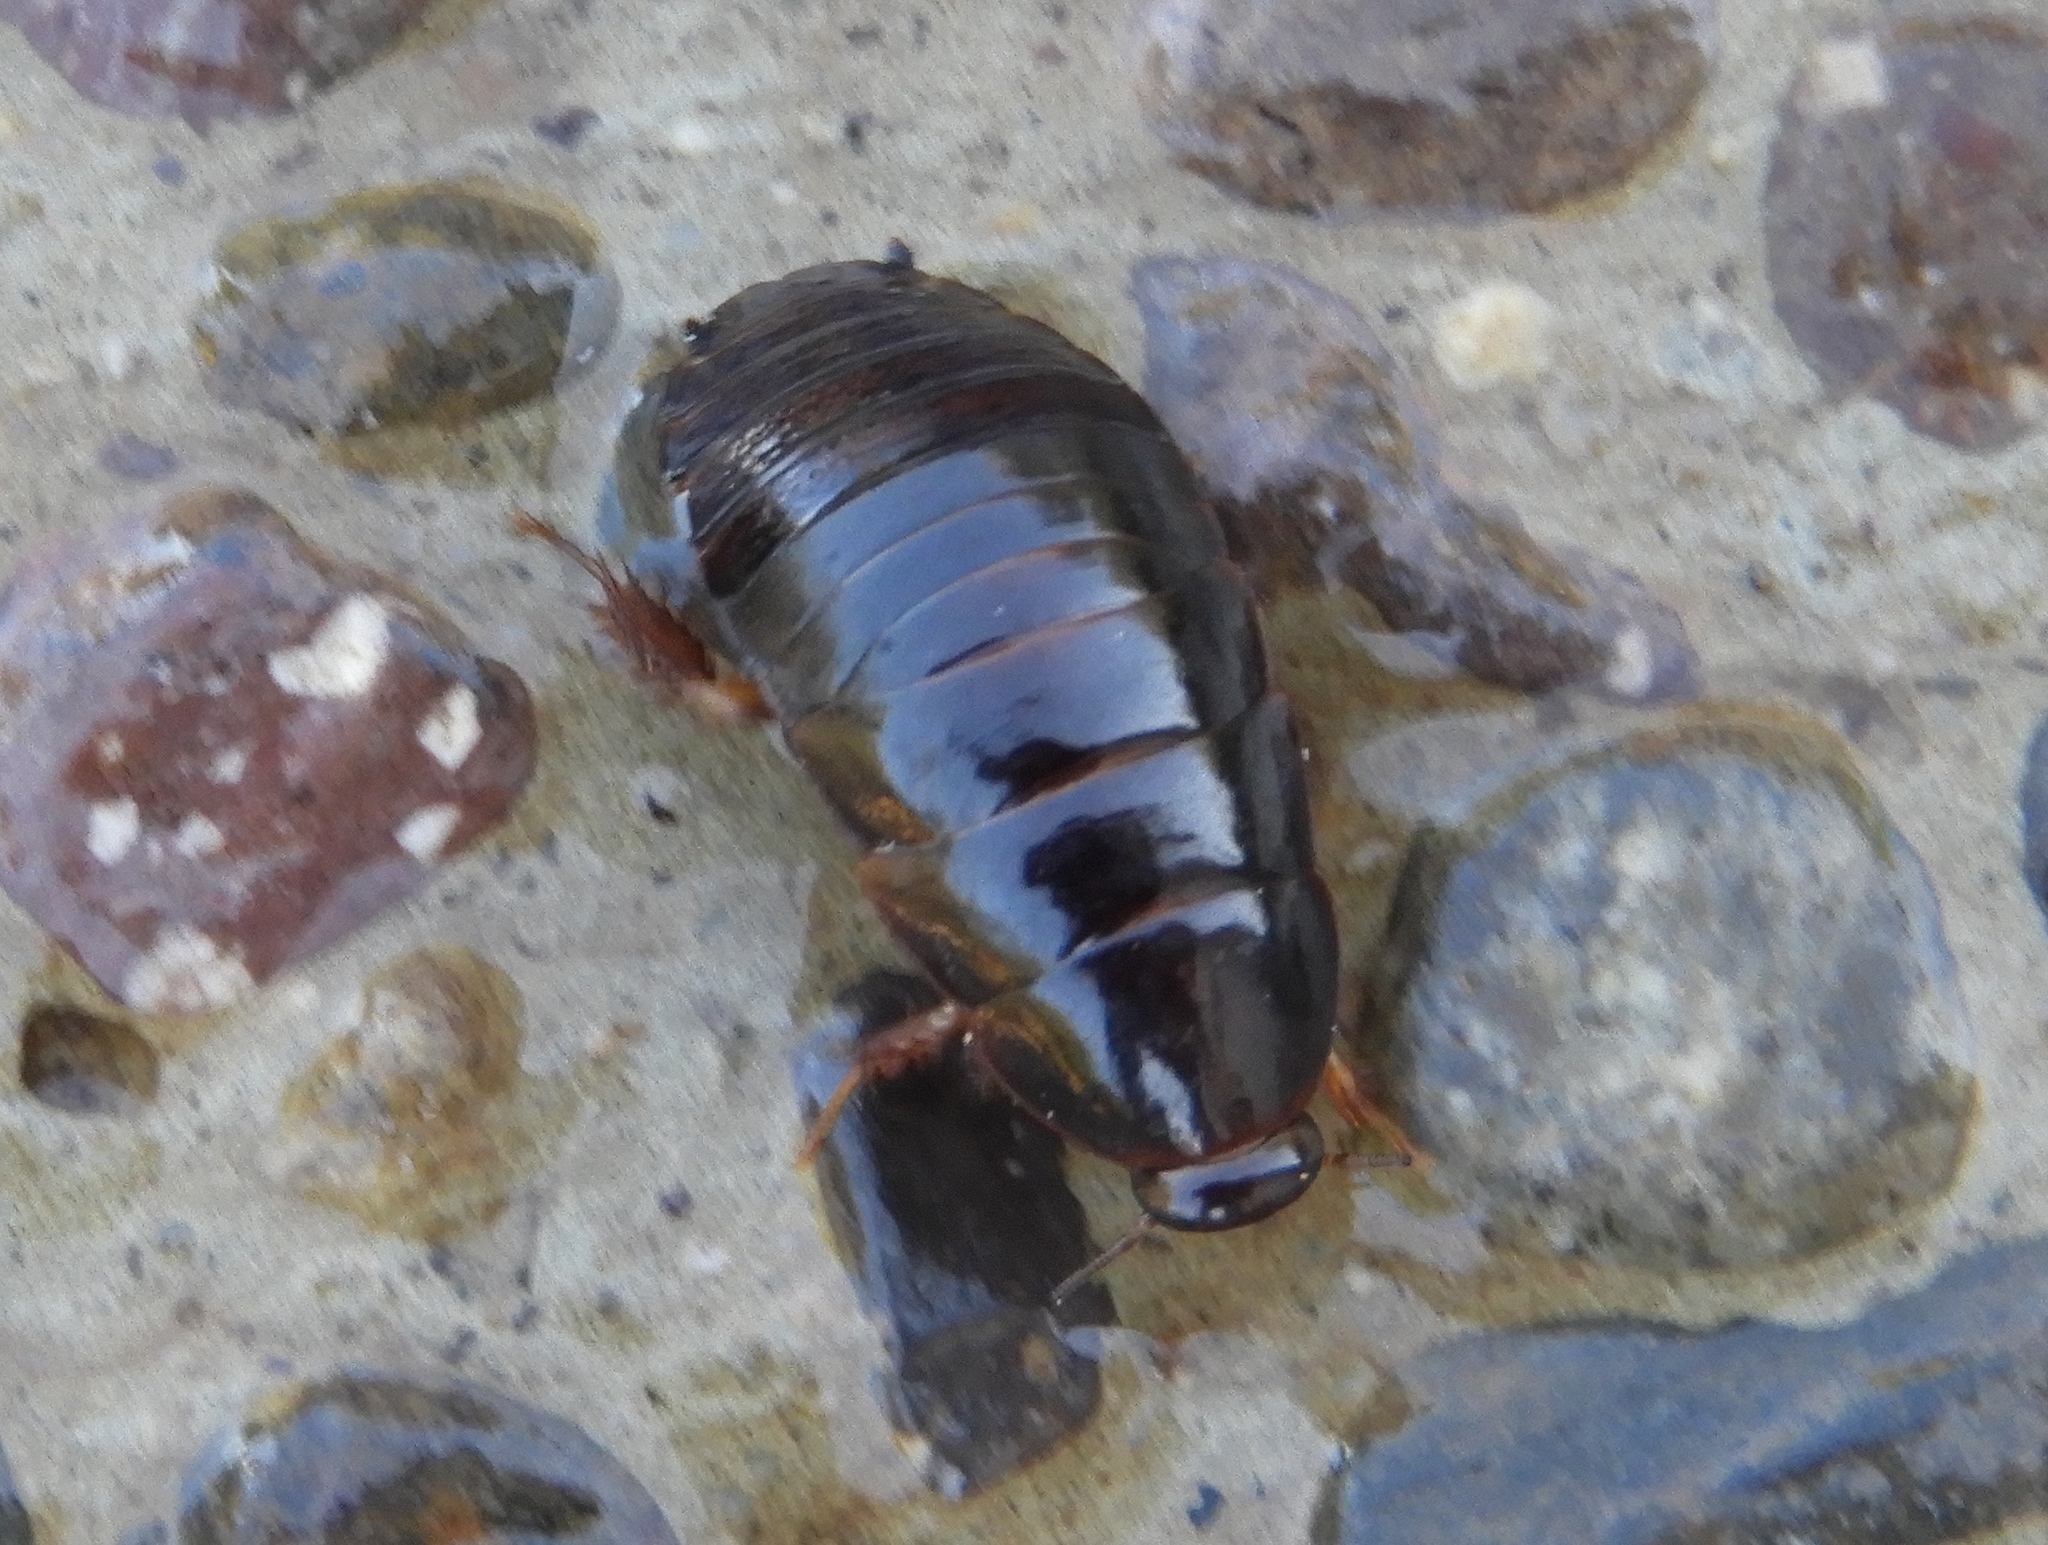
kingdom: Animalia
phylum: Arthropoda
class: Insecta
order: Blattodea
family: Blaberidae
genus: Pycnoscelus
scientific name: Pycnoscelus surinamensis
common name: Surinam cockroach
